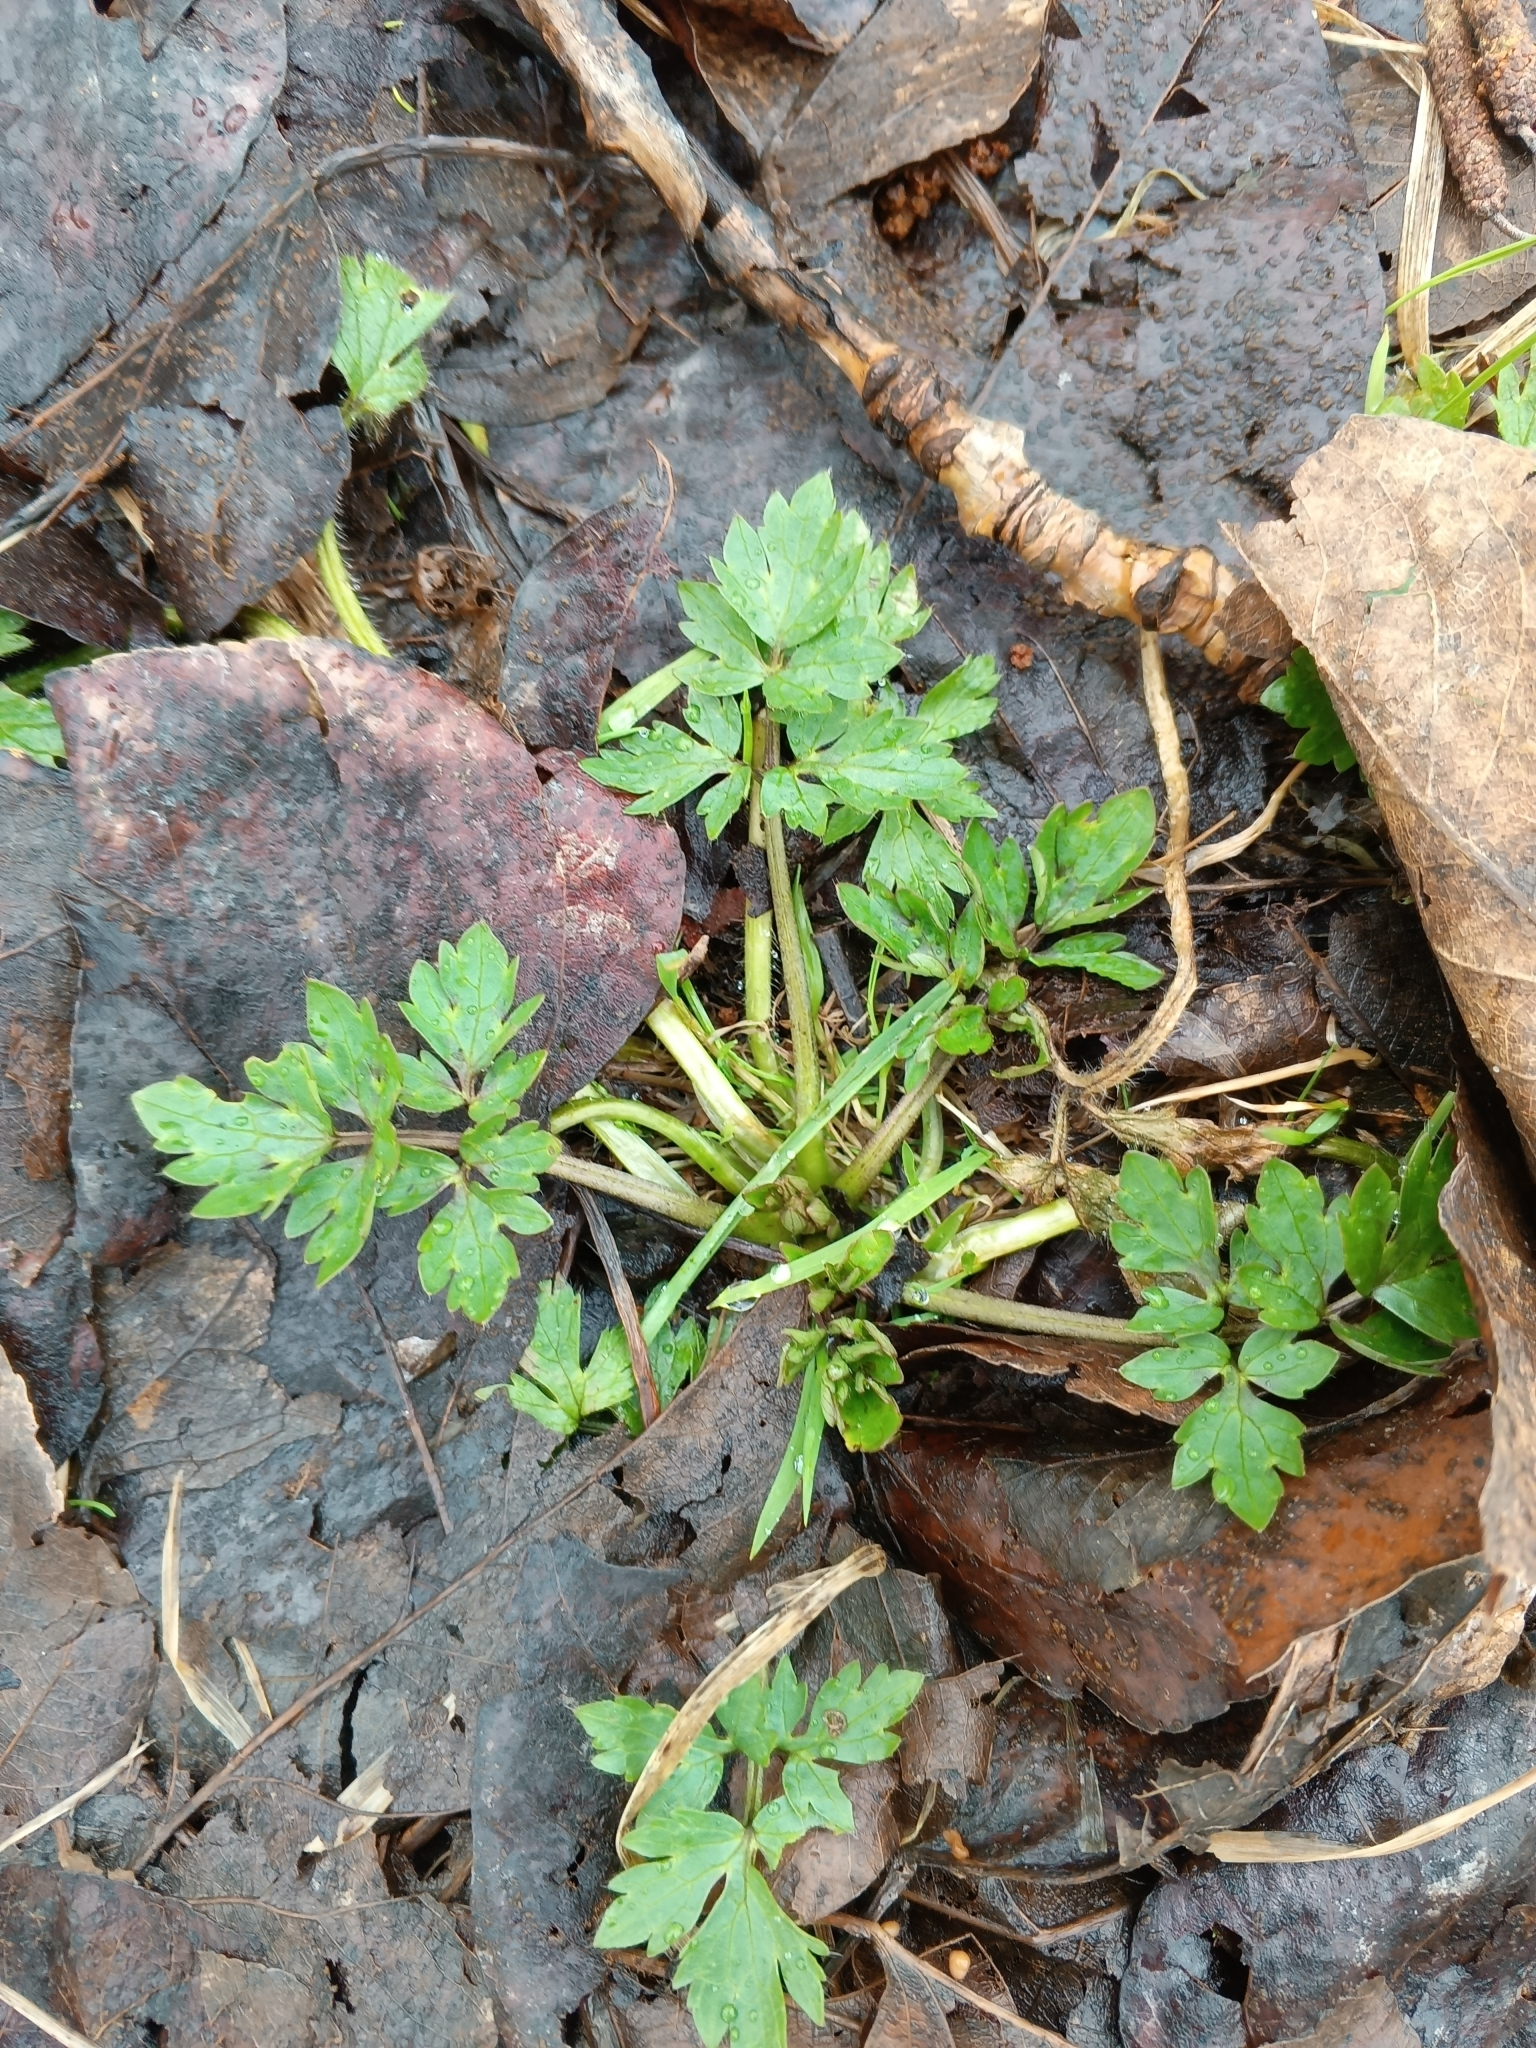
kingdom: Plantae
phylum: Tracheophyta
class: Magnoliopsida
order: Ranunculales
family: Ranunculaceae
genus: Ranunculus
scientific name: Ranunculus repens
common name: Creeping buttercup
